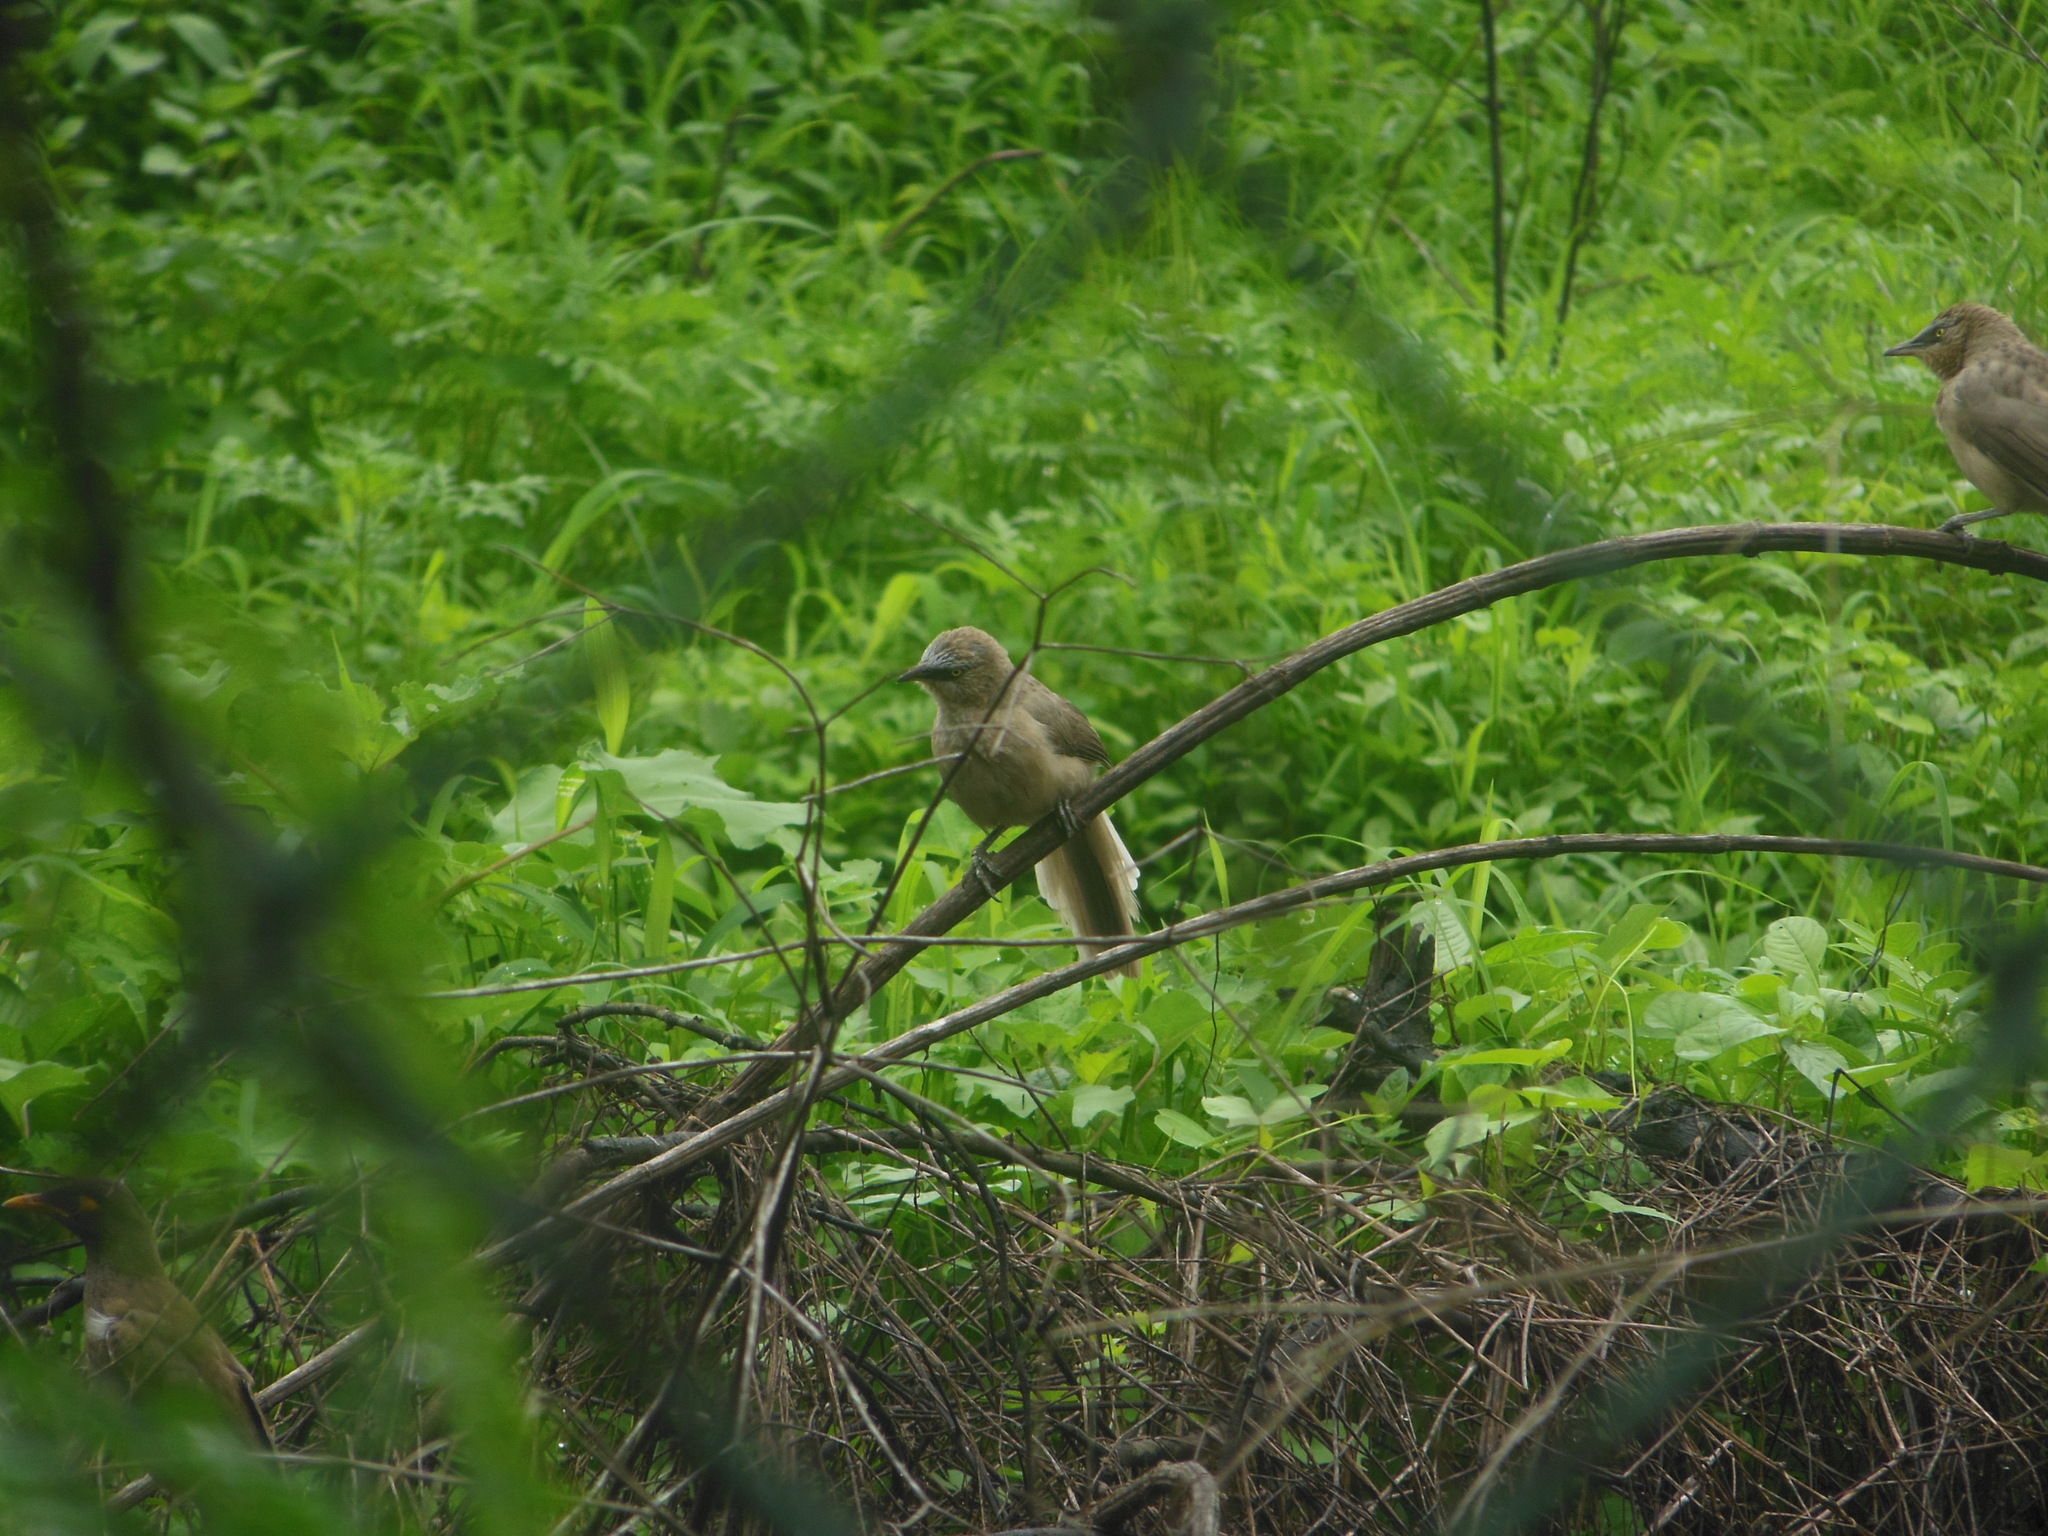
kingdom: Animalia
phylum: Chordata
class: Aves
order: Passeriformes
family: Leiothrichidae
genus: Turdoides
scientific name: Turdoides malcolmi
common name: Large grey babbler
